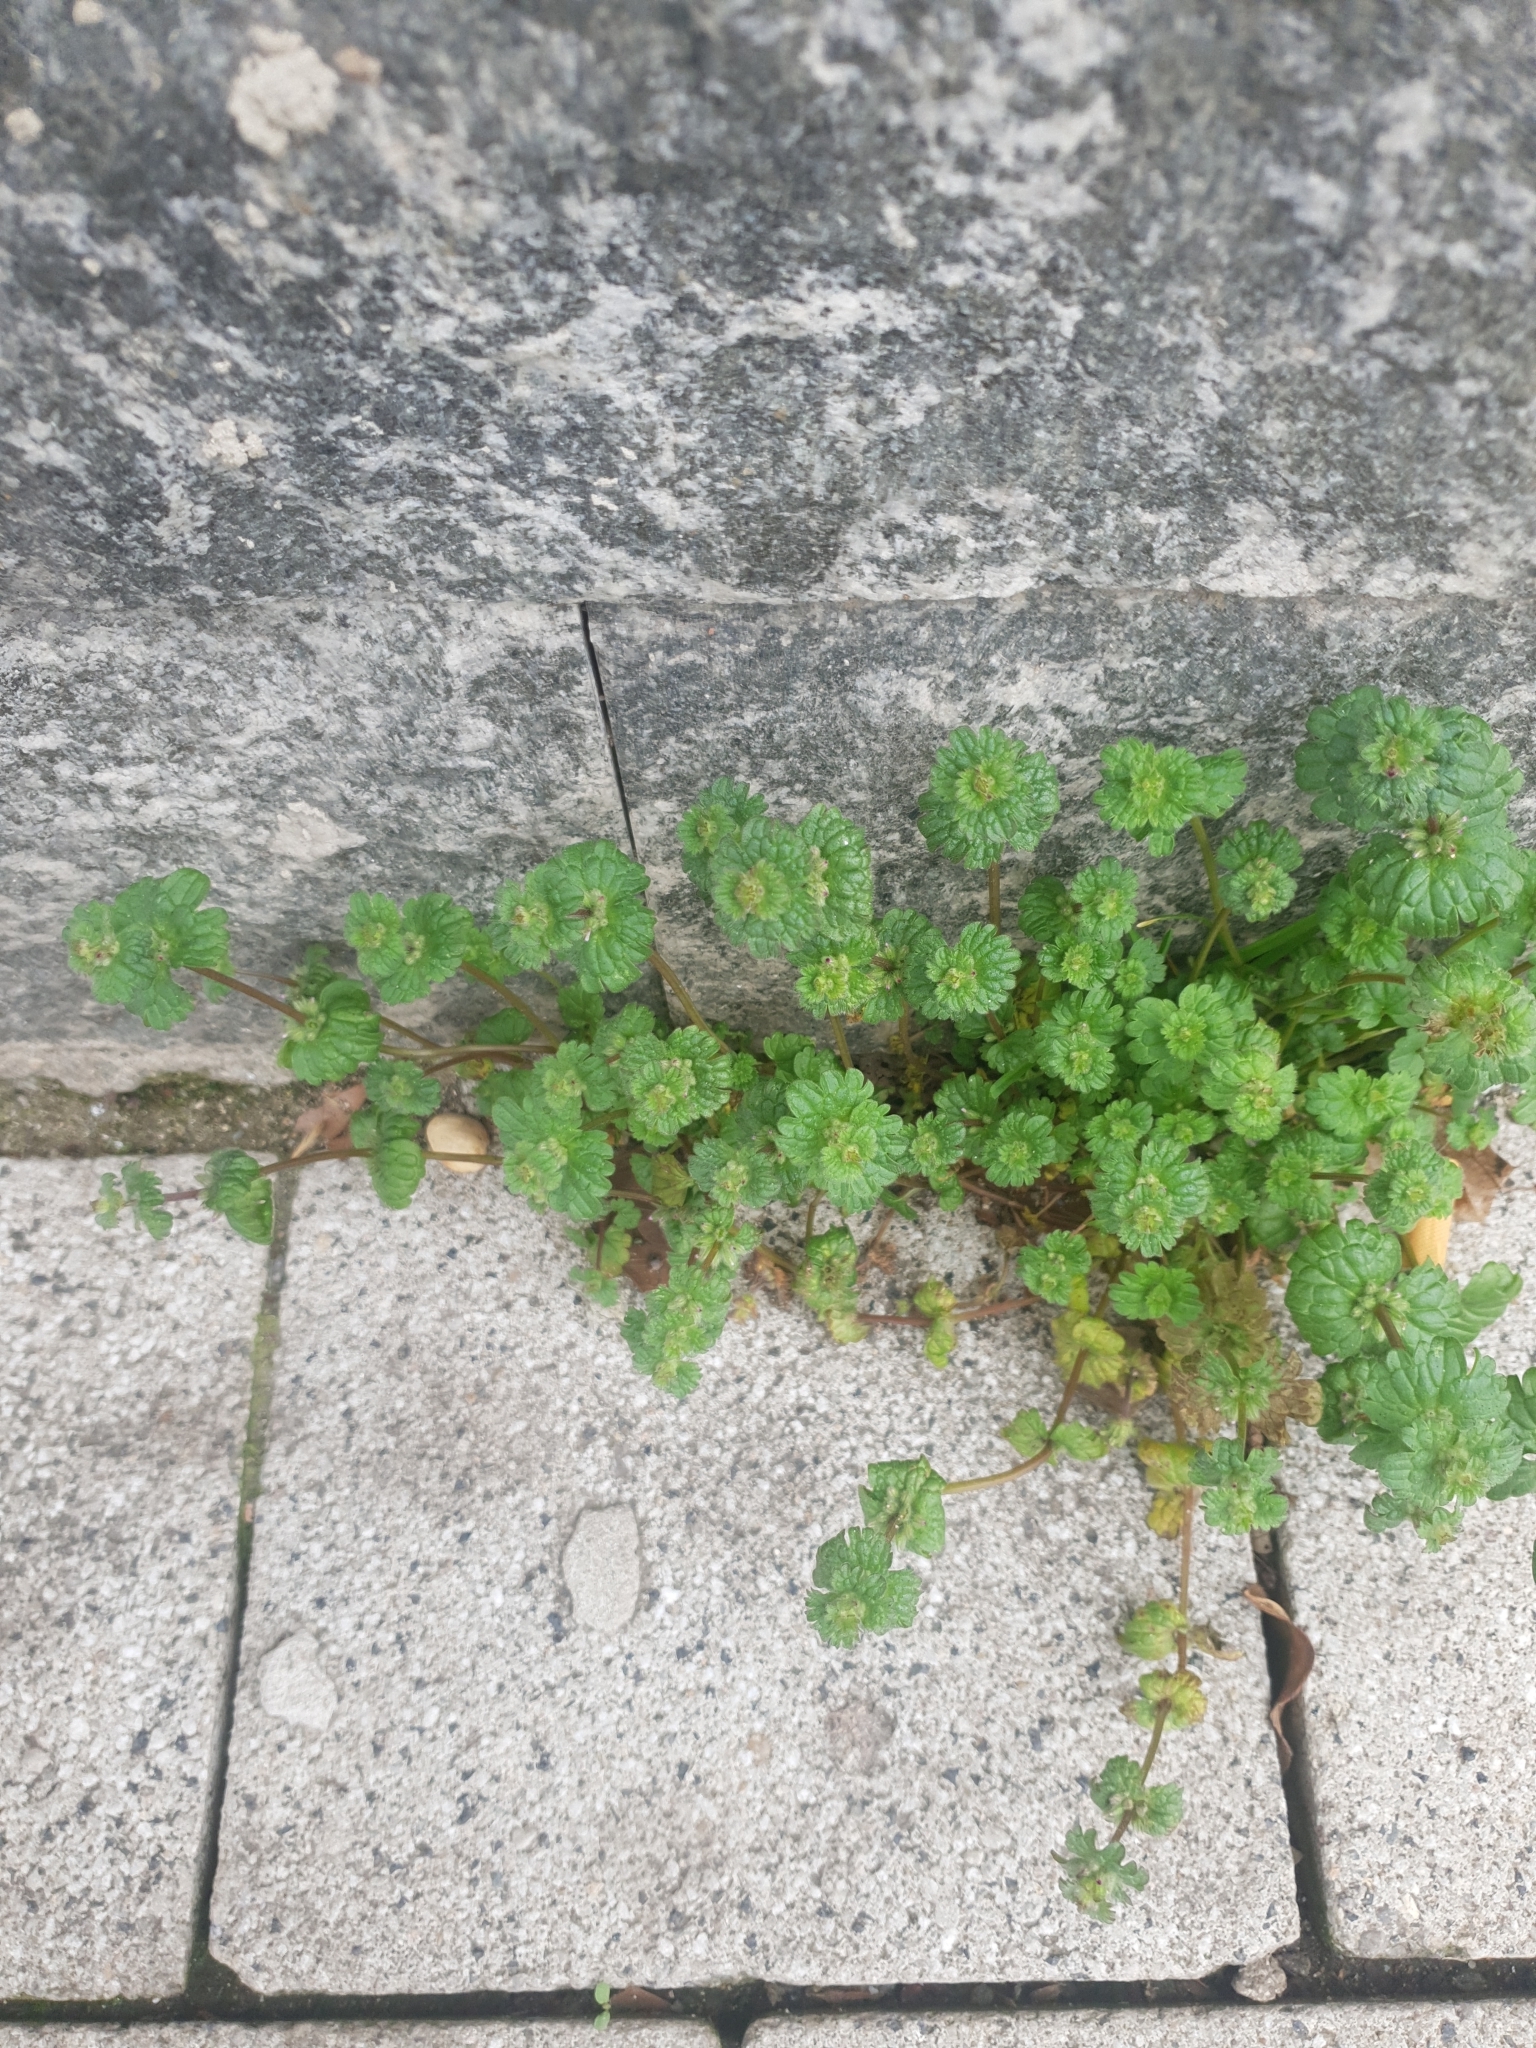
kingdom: Plantae
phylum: Tracheophyta
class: Magnoliopsida
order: Lamiales
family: Lamiaceae
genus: Lamium
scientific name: Lamium amplexicaule
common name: Henbit dead-nettle
